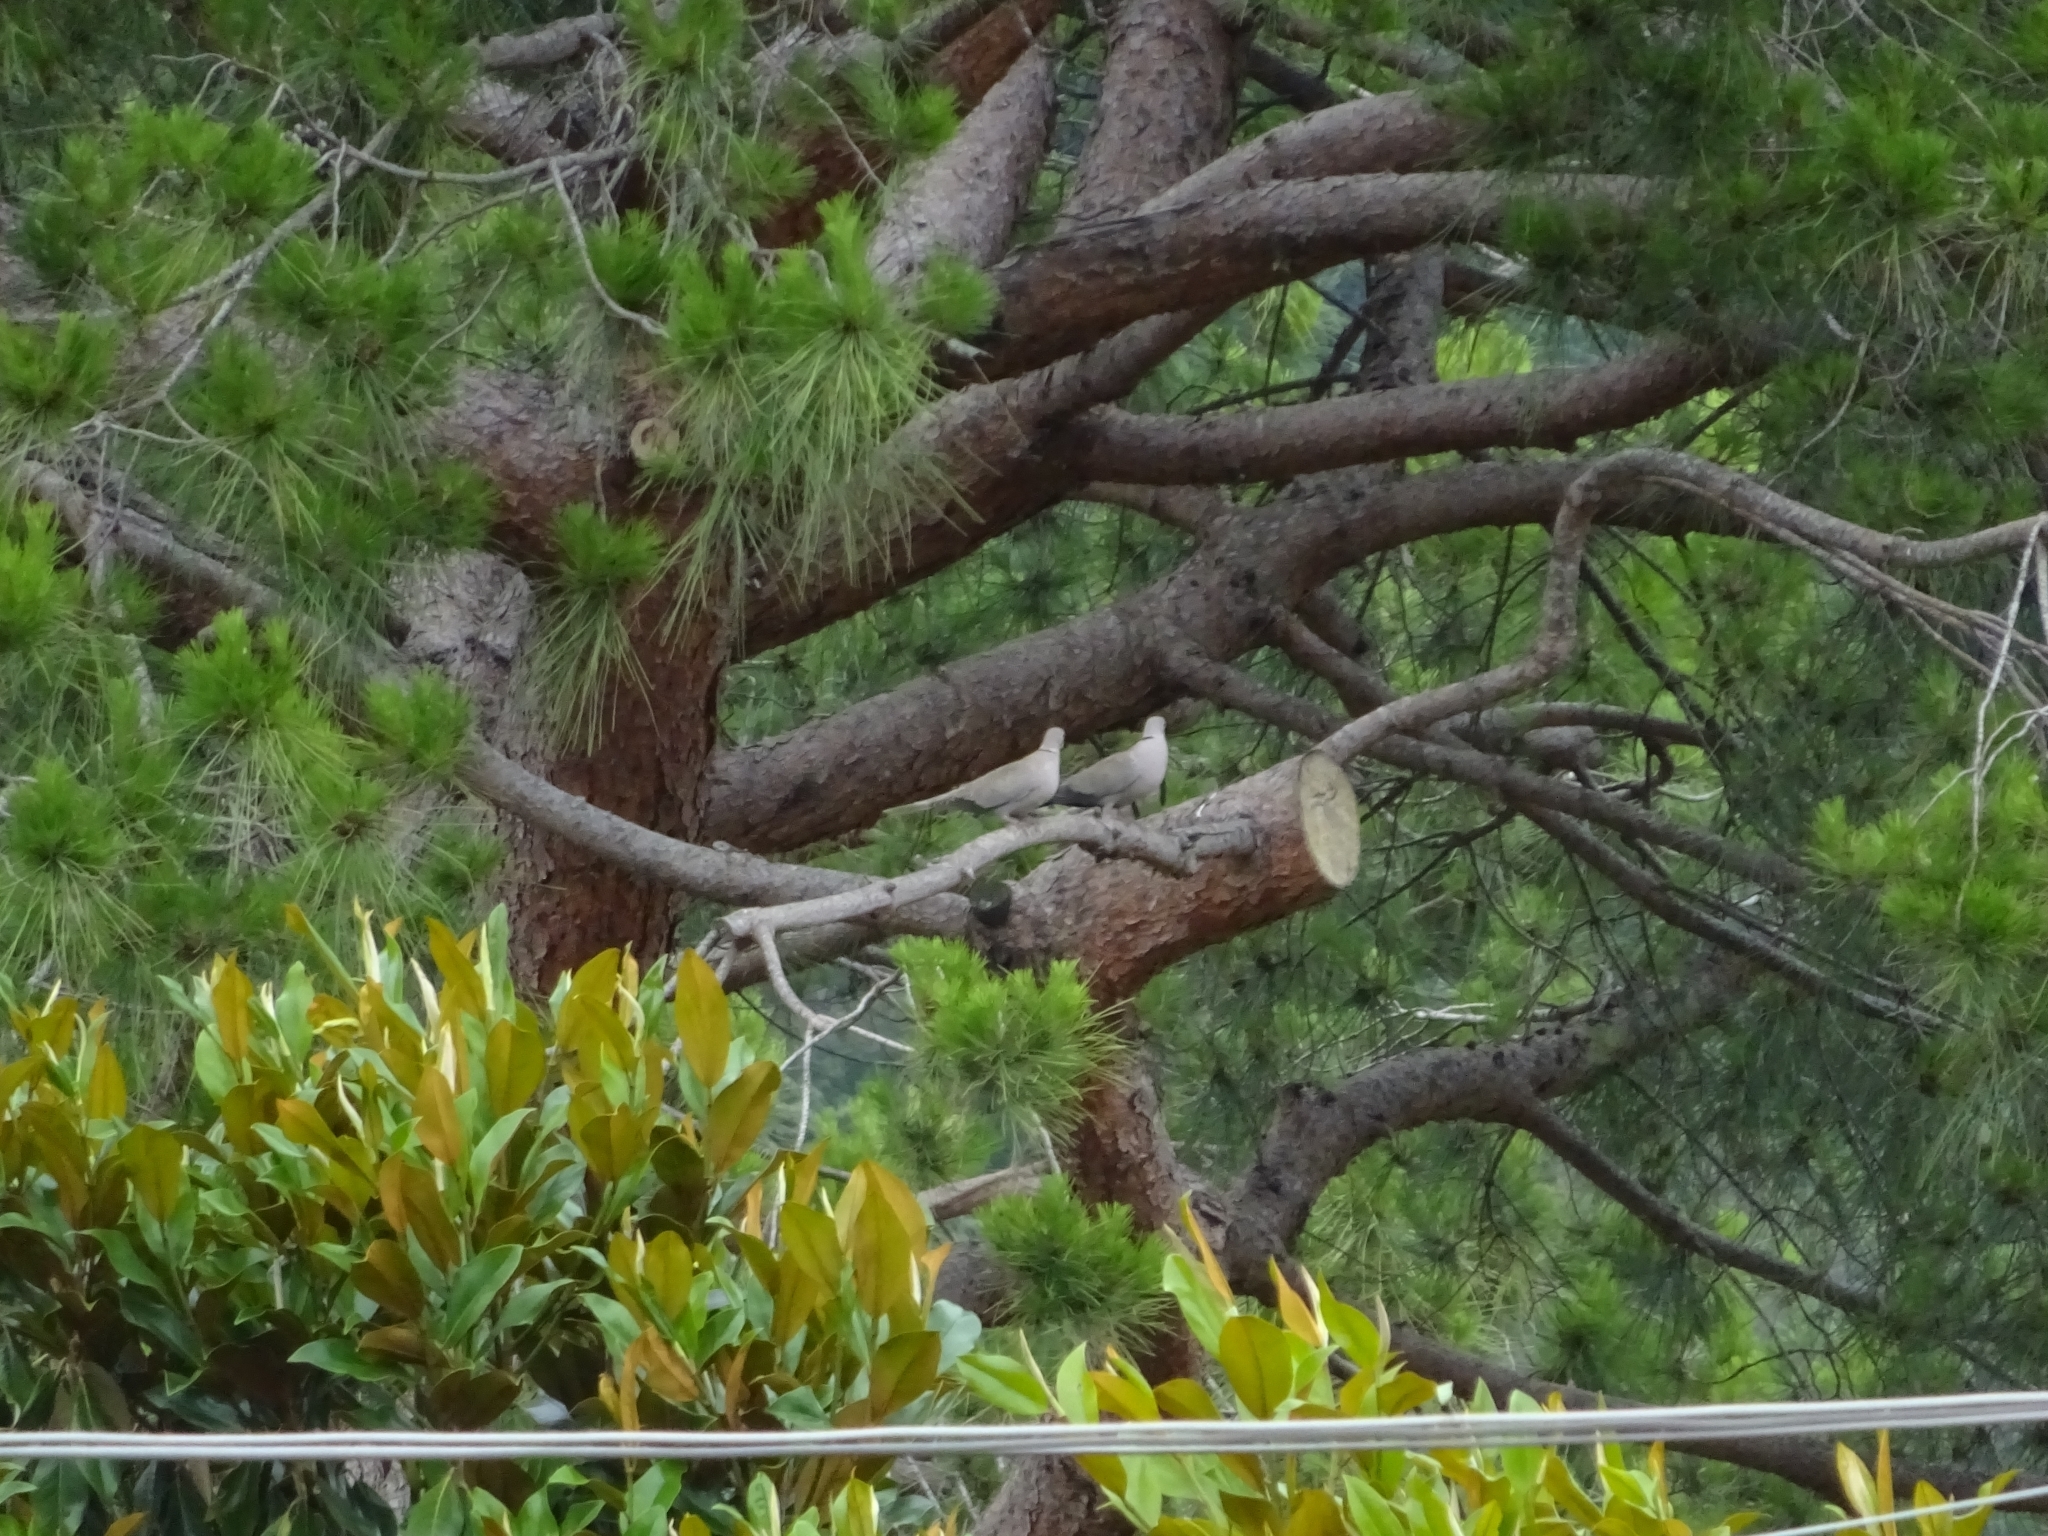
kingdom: Animalia
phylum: Chordata
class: Aves
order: Columbiformes
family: Columbidae
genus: Streptopelia
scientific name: Streptopelia decaocto
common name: Eurasian collared dove
